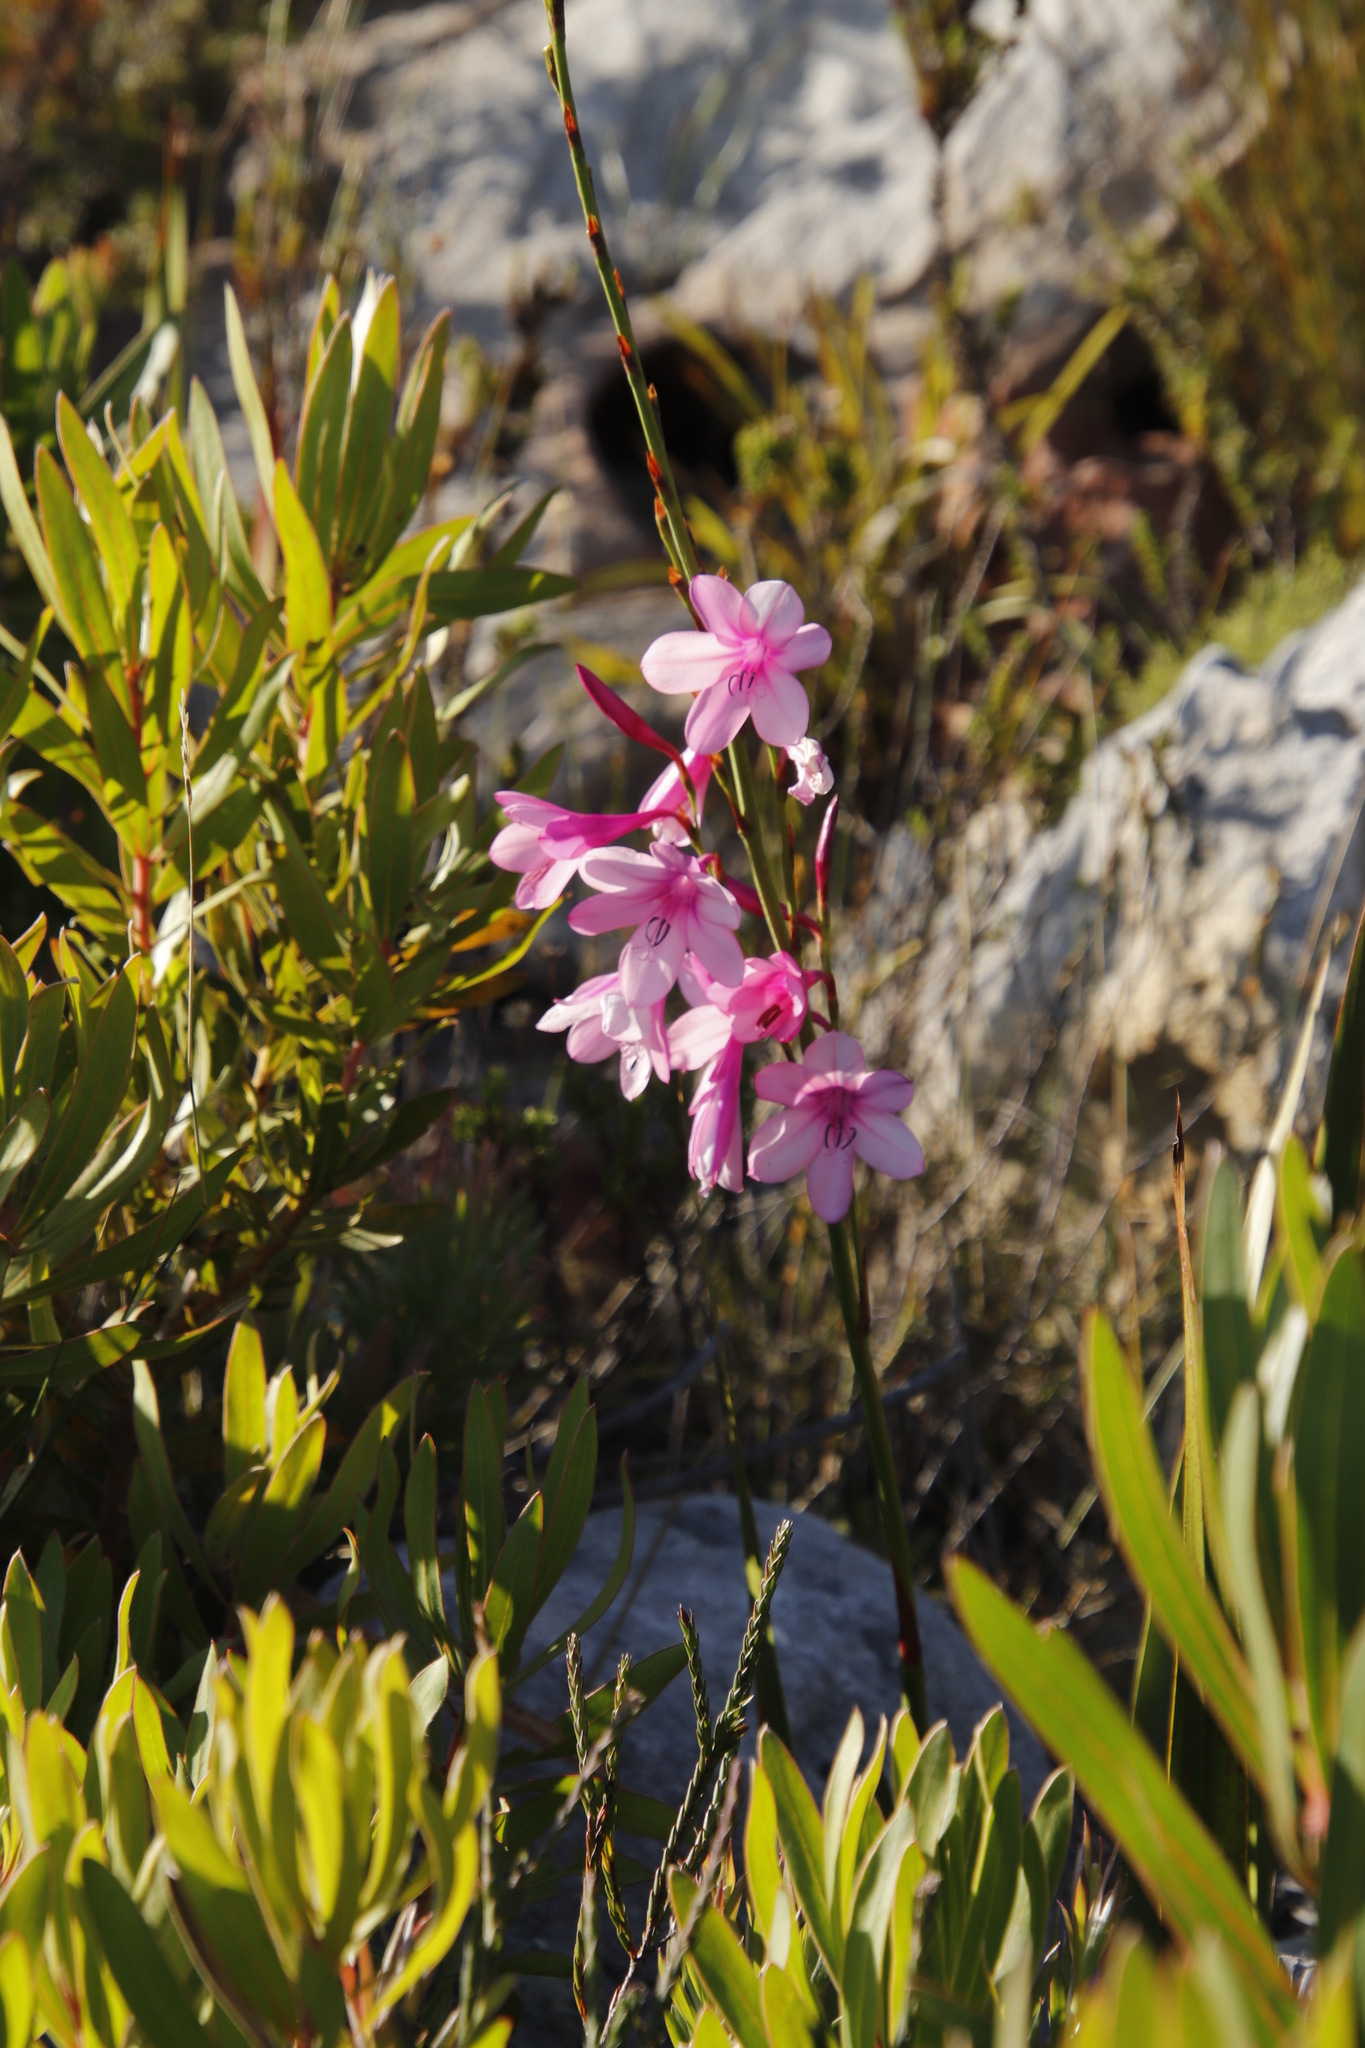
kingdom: Plantae
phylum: Tracheophyta
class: Liliopsida
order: Asparagales
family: Iridaceae
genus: Watsonia
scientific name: Watsonia borbonica
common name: Bugle-lily
